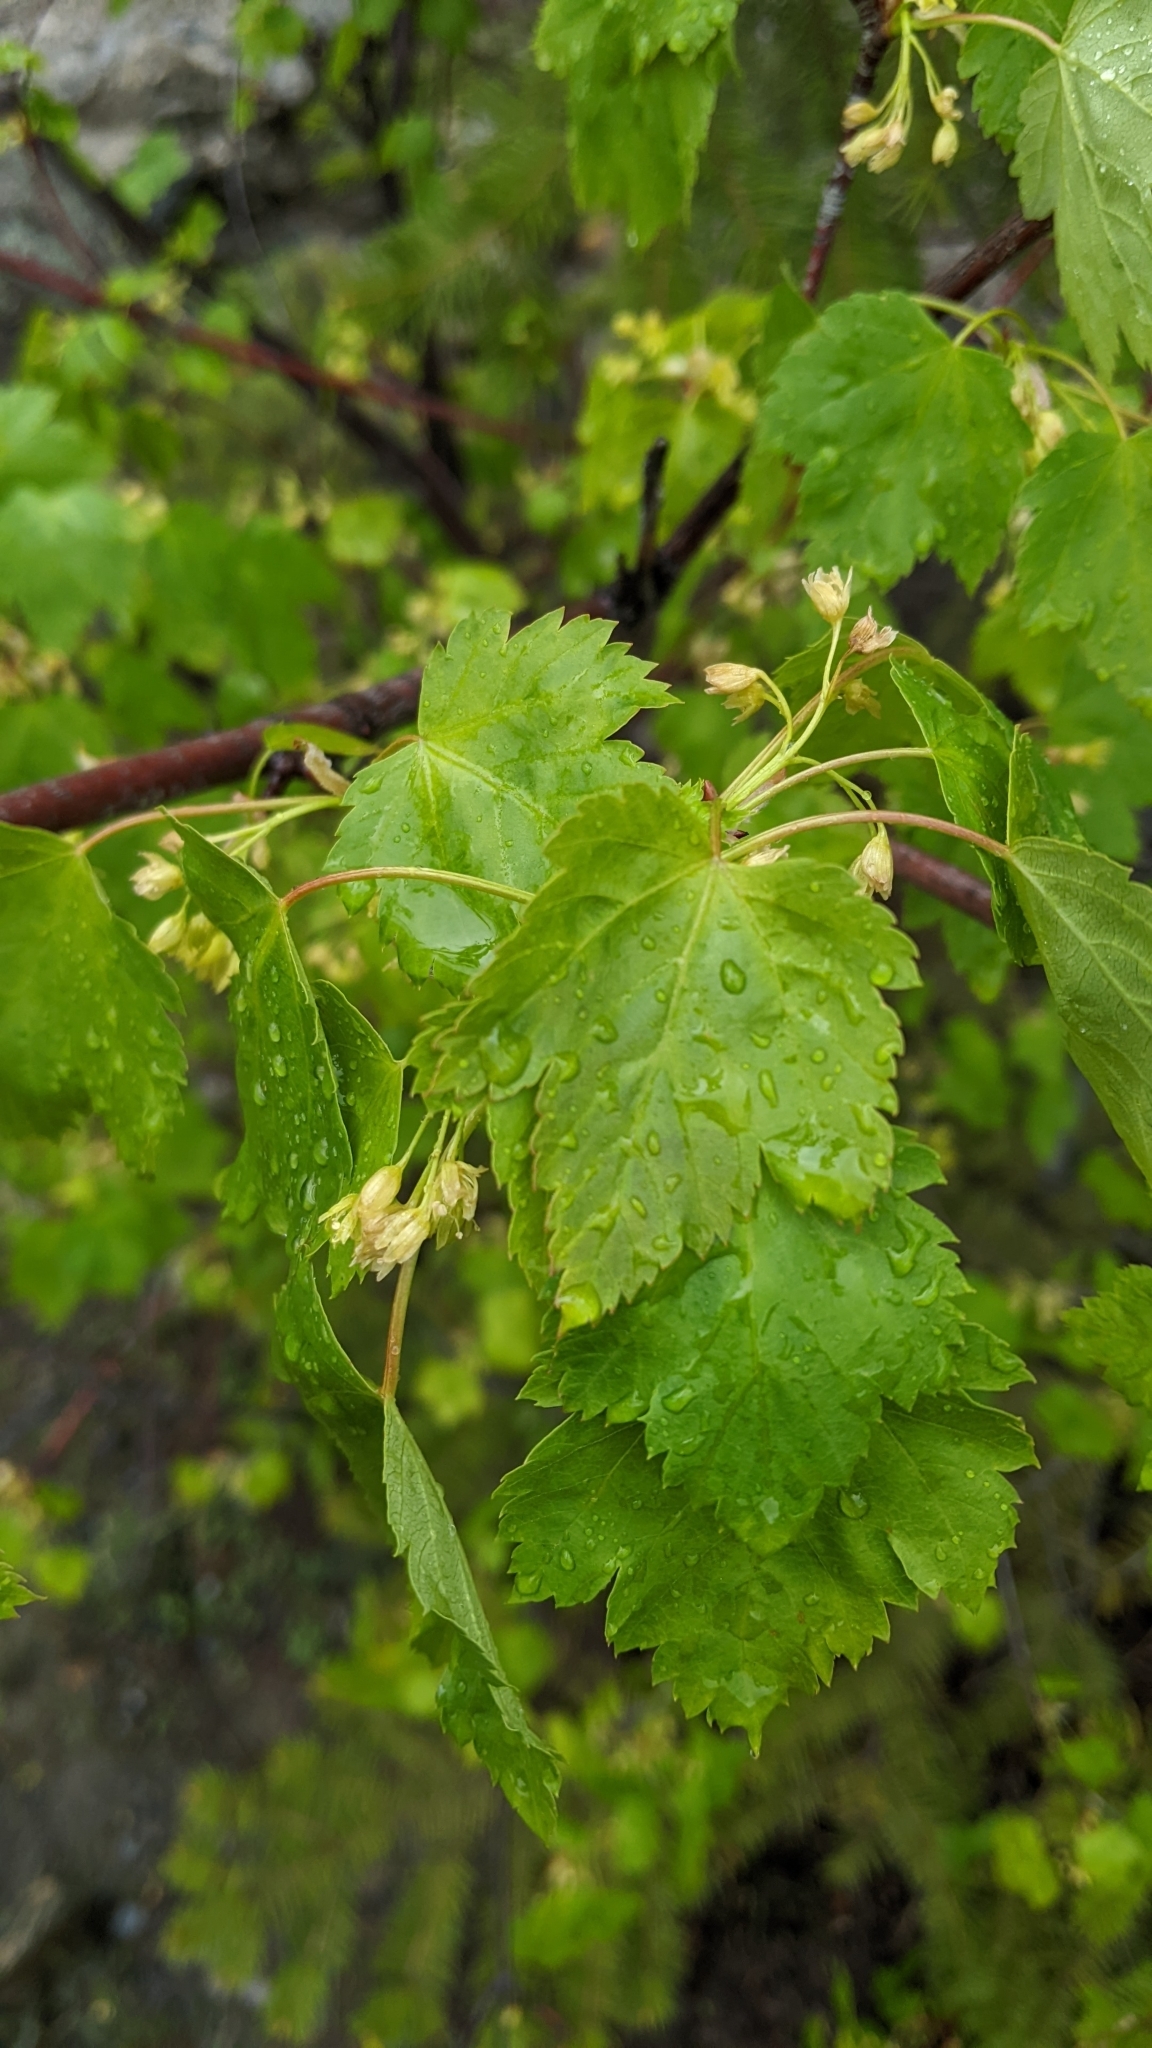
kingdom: Plantae
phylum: Tracheophyta
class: Magnoliopsida
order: Sapindales
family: Sapindaceae
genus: Acer
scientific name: Acer glabrum
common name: Rocky mountain maple
